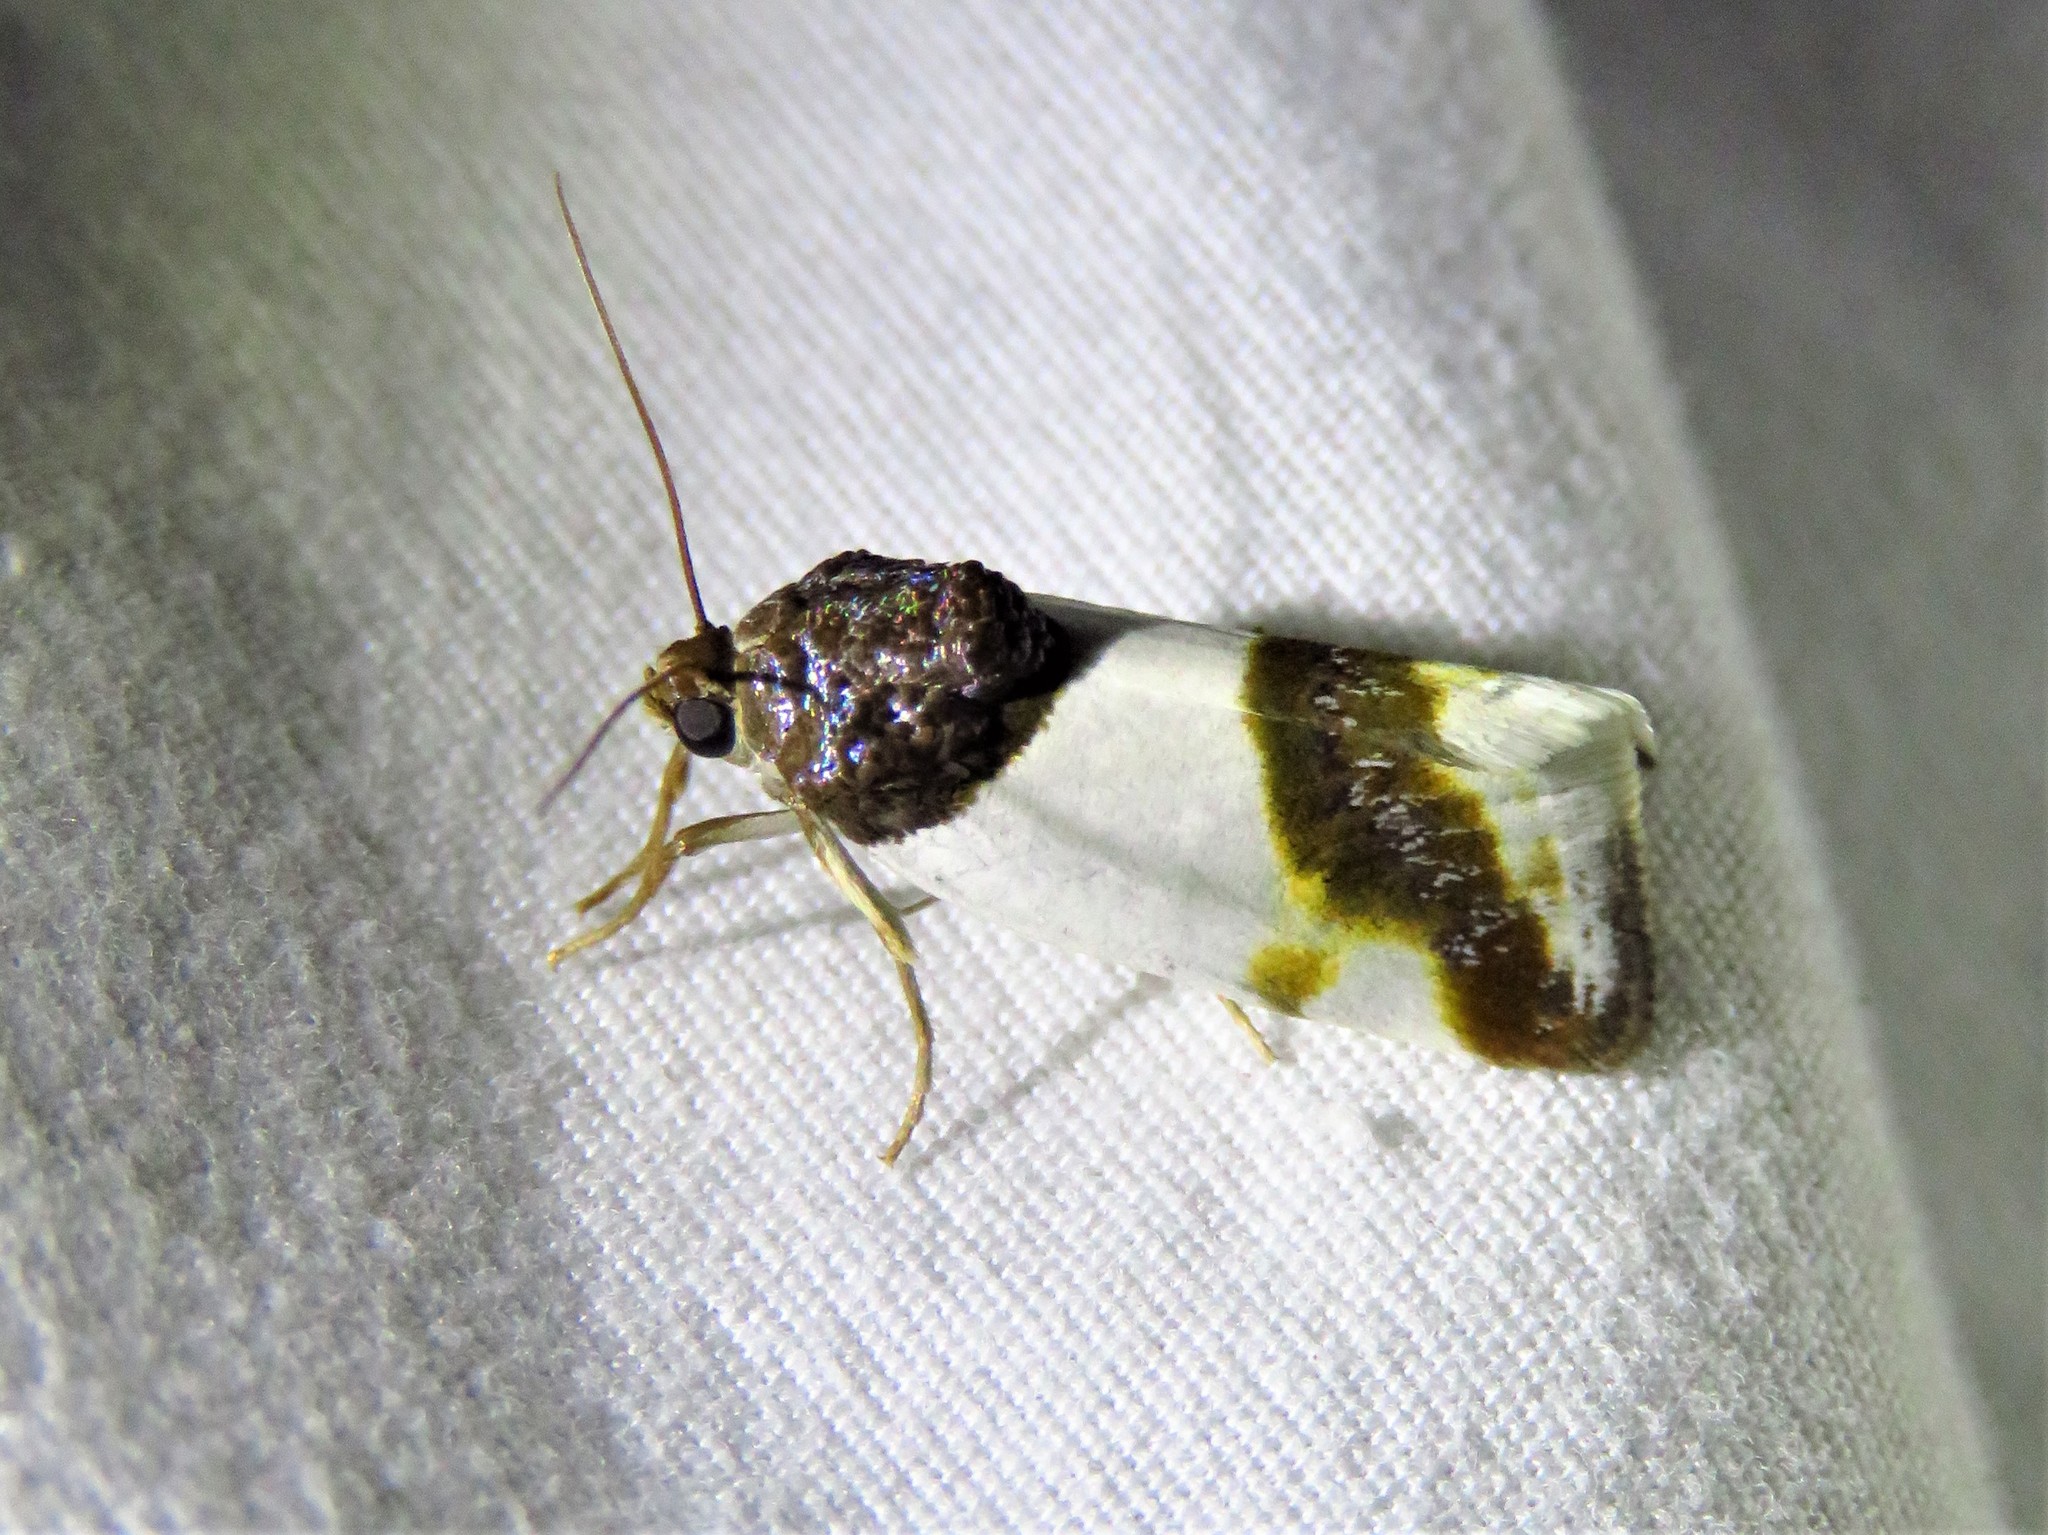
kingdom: Animalia
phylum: Arthropoda
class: Insecta
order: Lepidoptera
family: Noctuidae
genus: Acontia
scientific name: Acontia Tarache lactipennis
